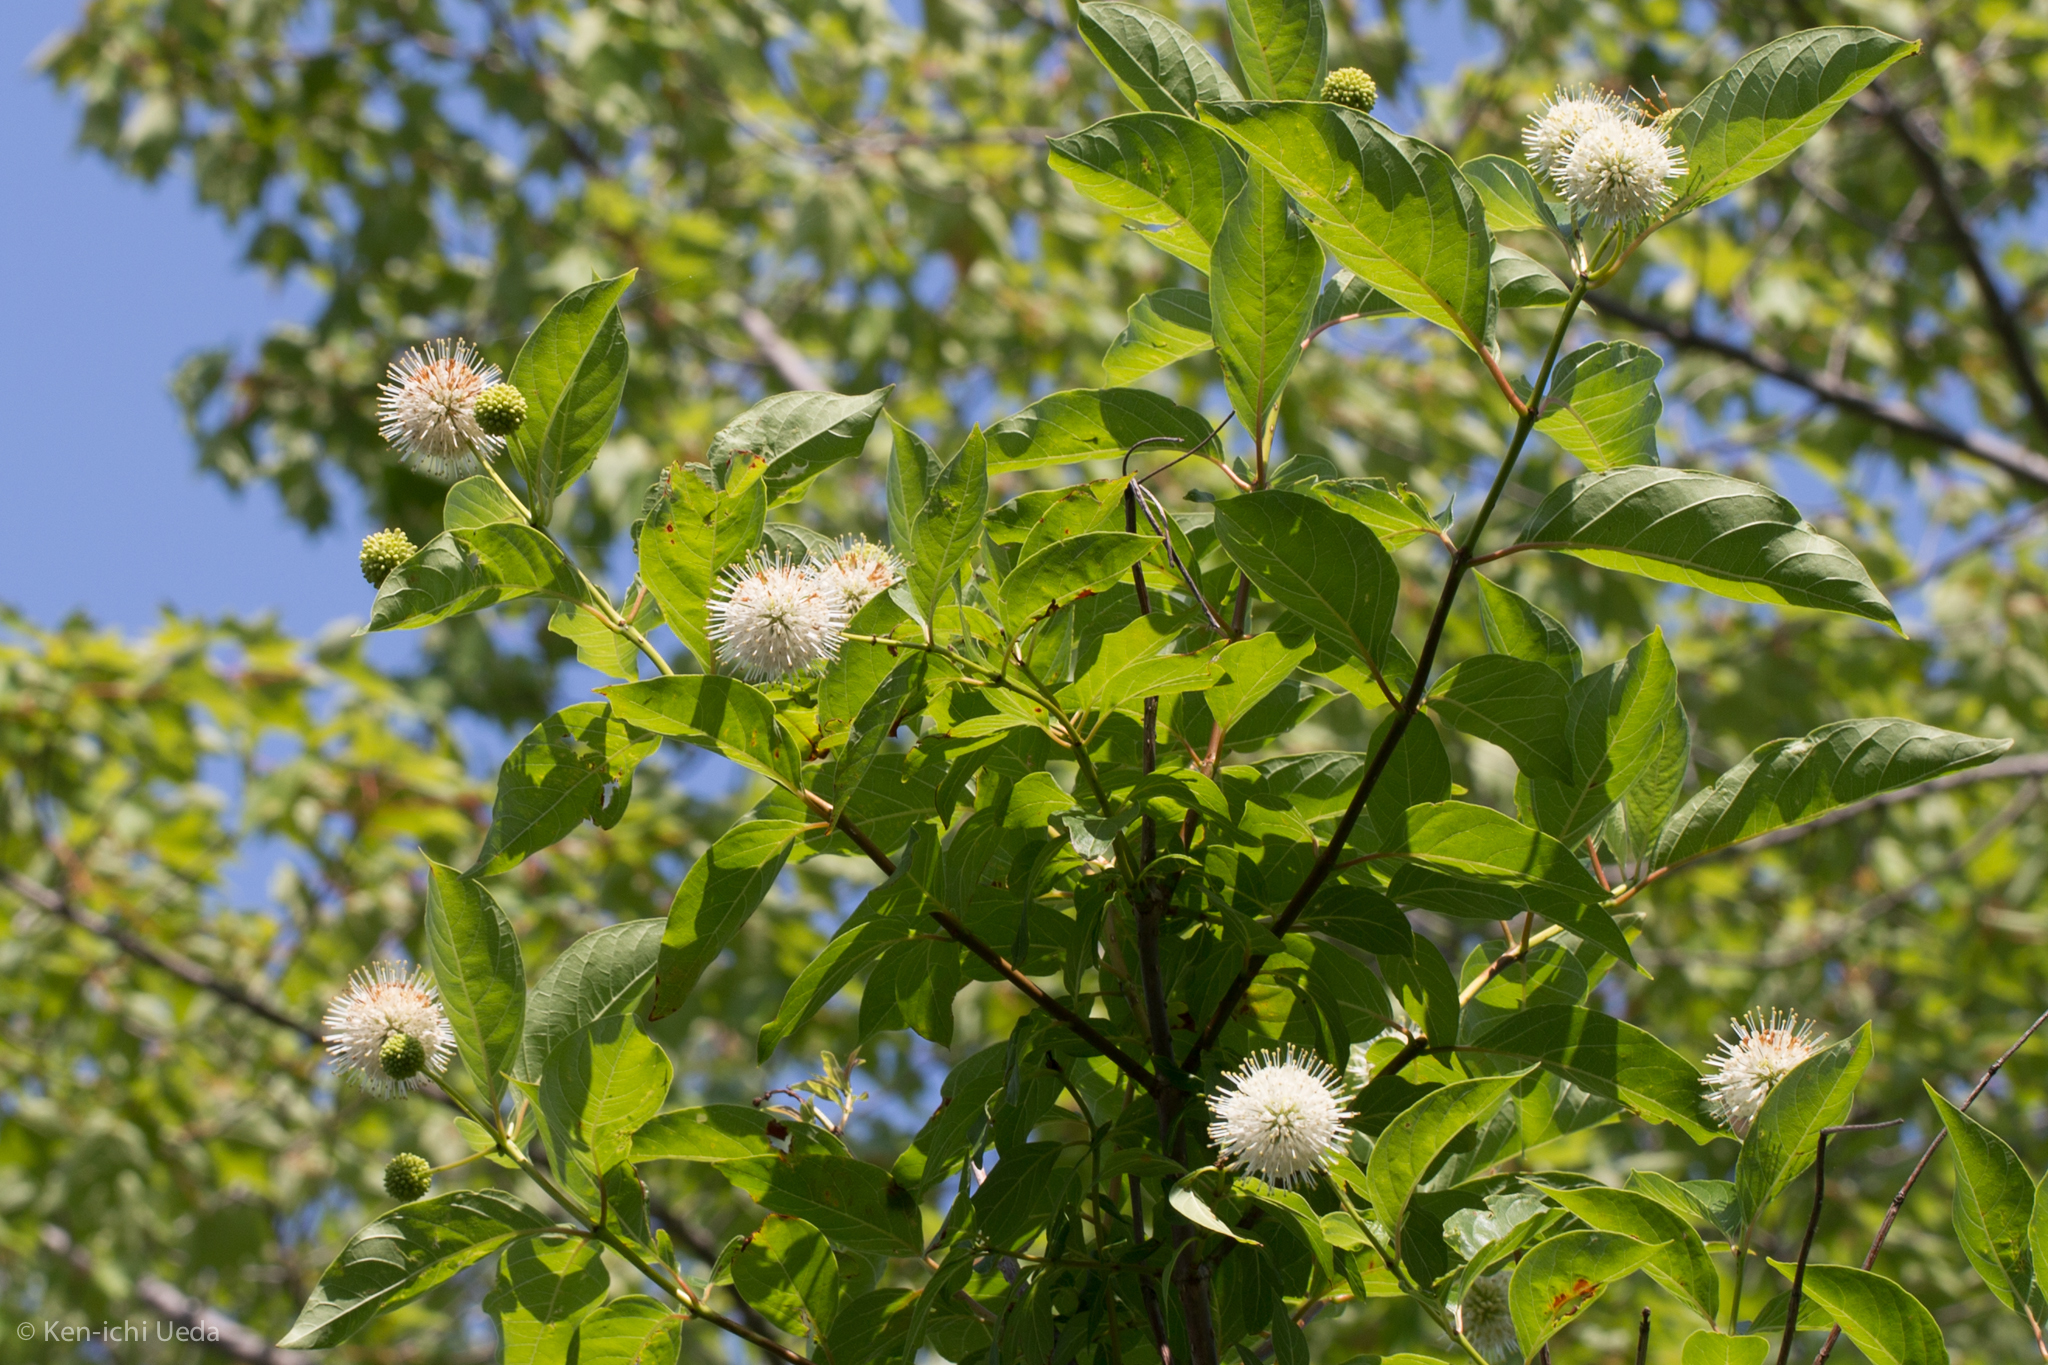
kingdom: Plantae
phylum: Tracheophyta
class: Magnoliopsida
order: Gentianales
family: Rubiaceae
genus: Cephalanthus
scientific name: Cephalanthus occidentalis
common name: Button-willow
